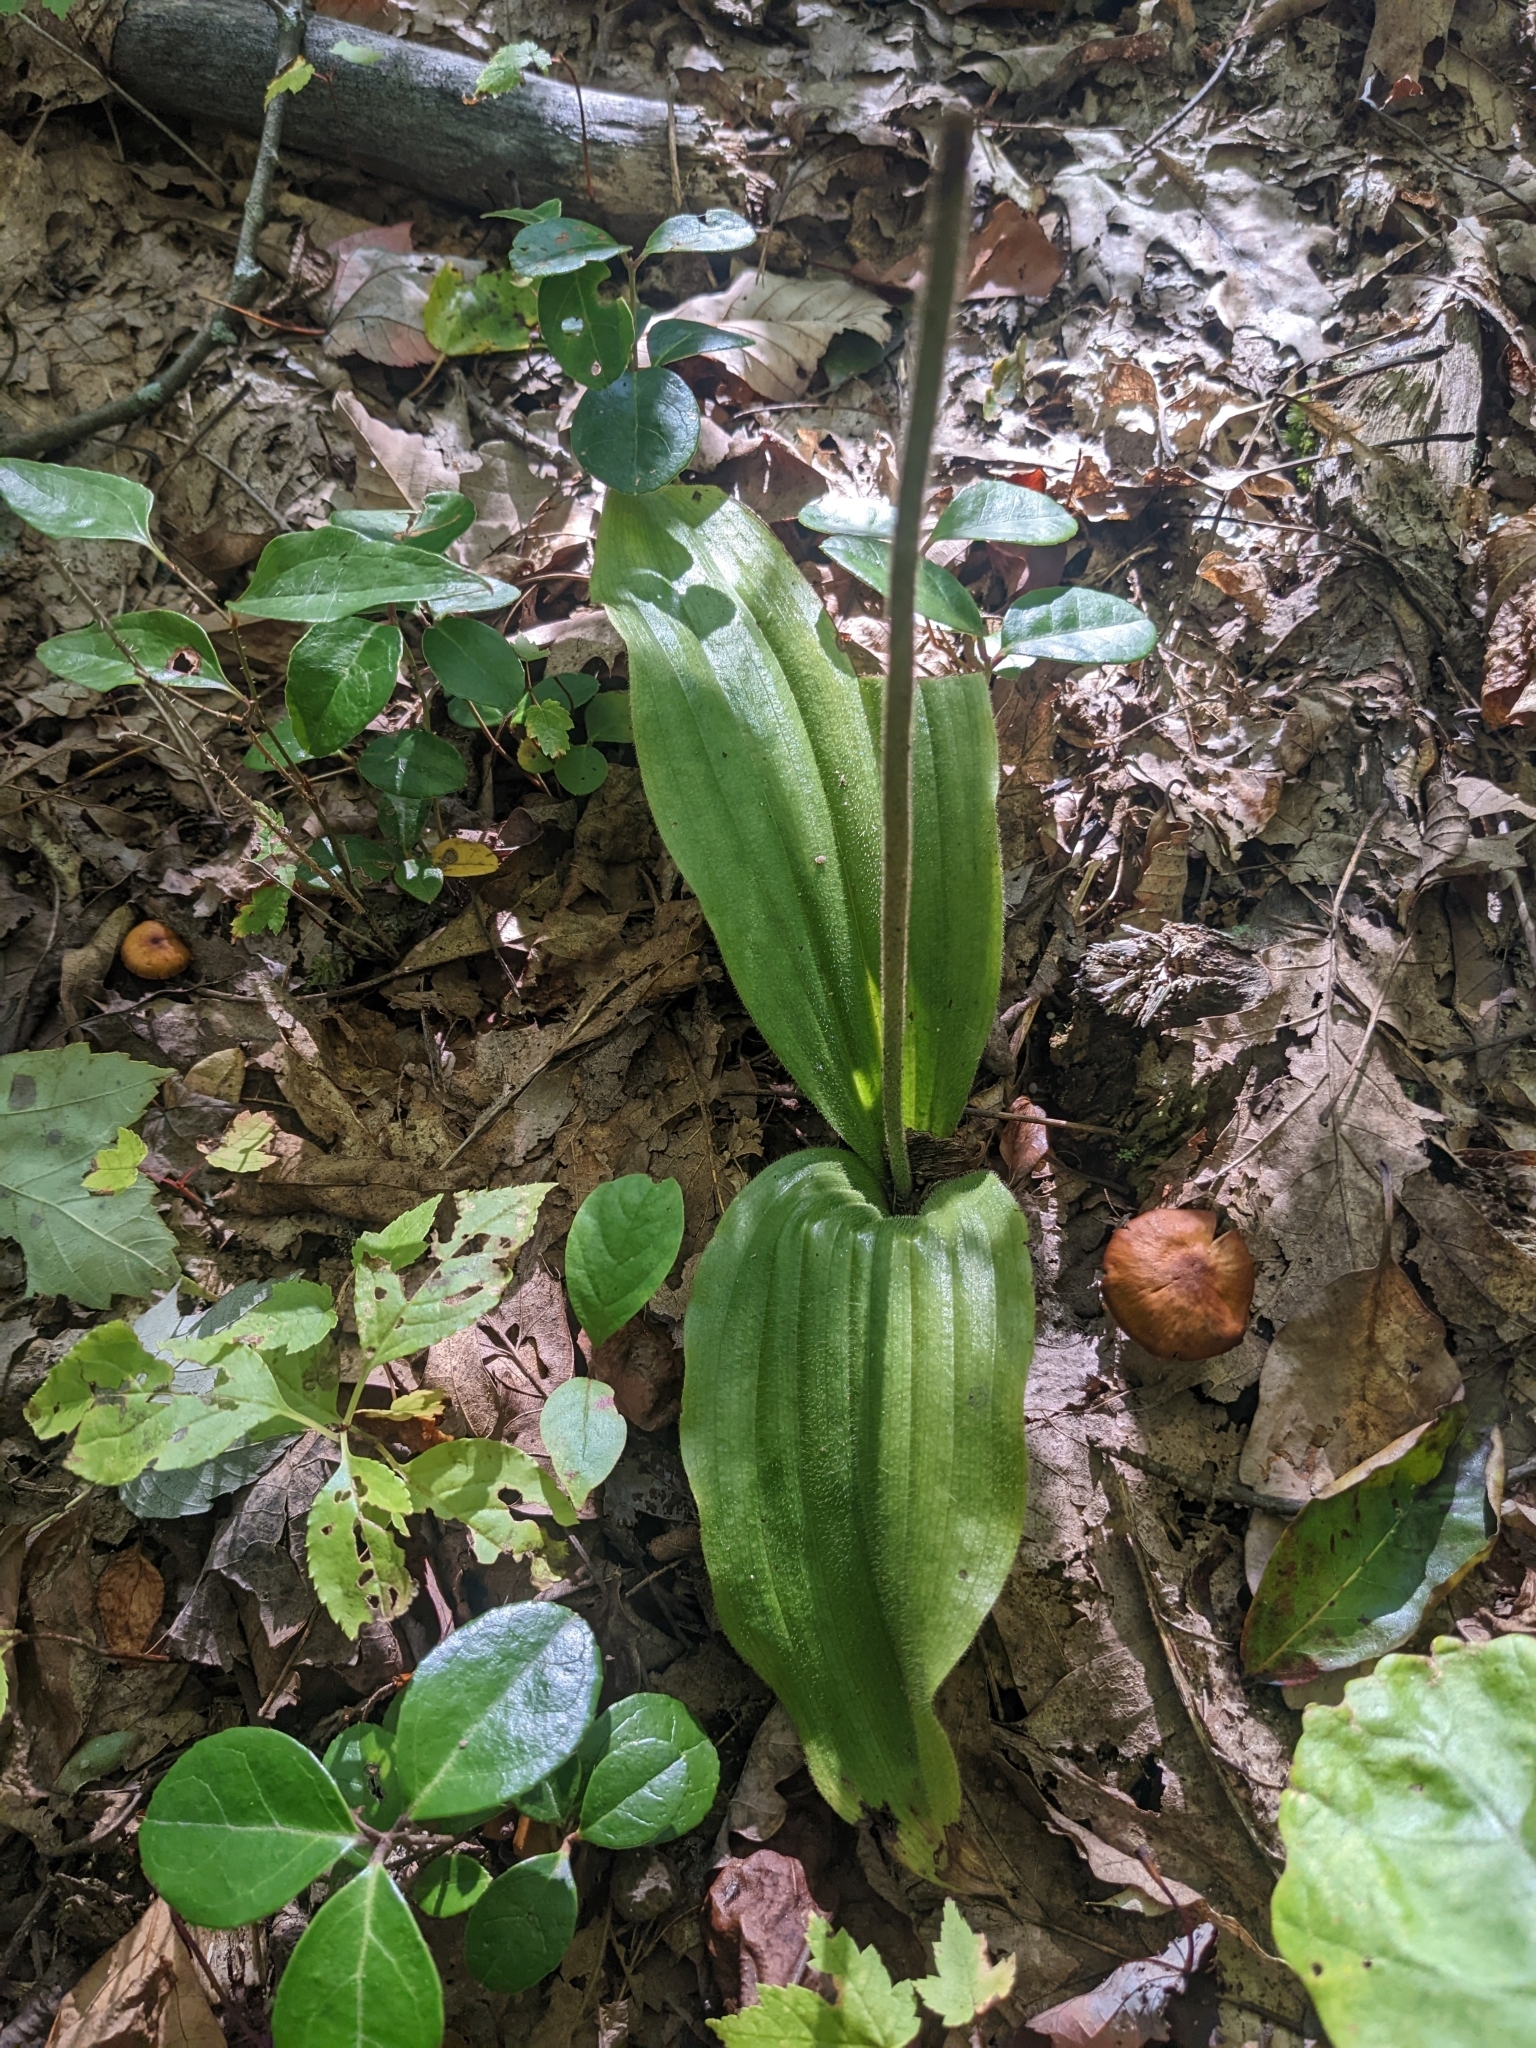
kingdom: Plantae
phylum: Tracheophyta
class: Liliopsida
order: Asparagales
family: Orchidaceae
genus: Cypripedium
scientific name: Cypripedium acaule
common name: Pink lady's-slipper
